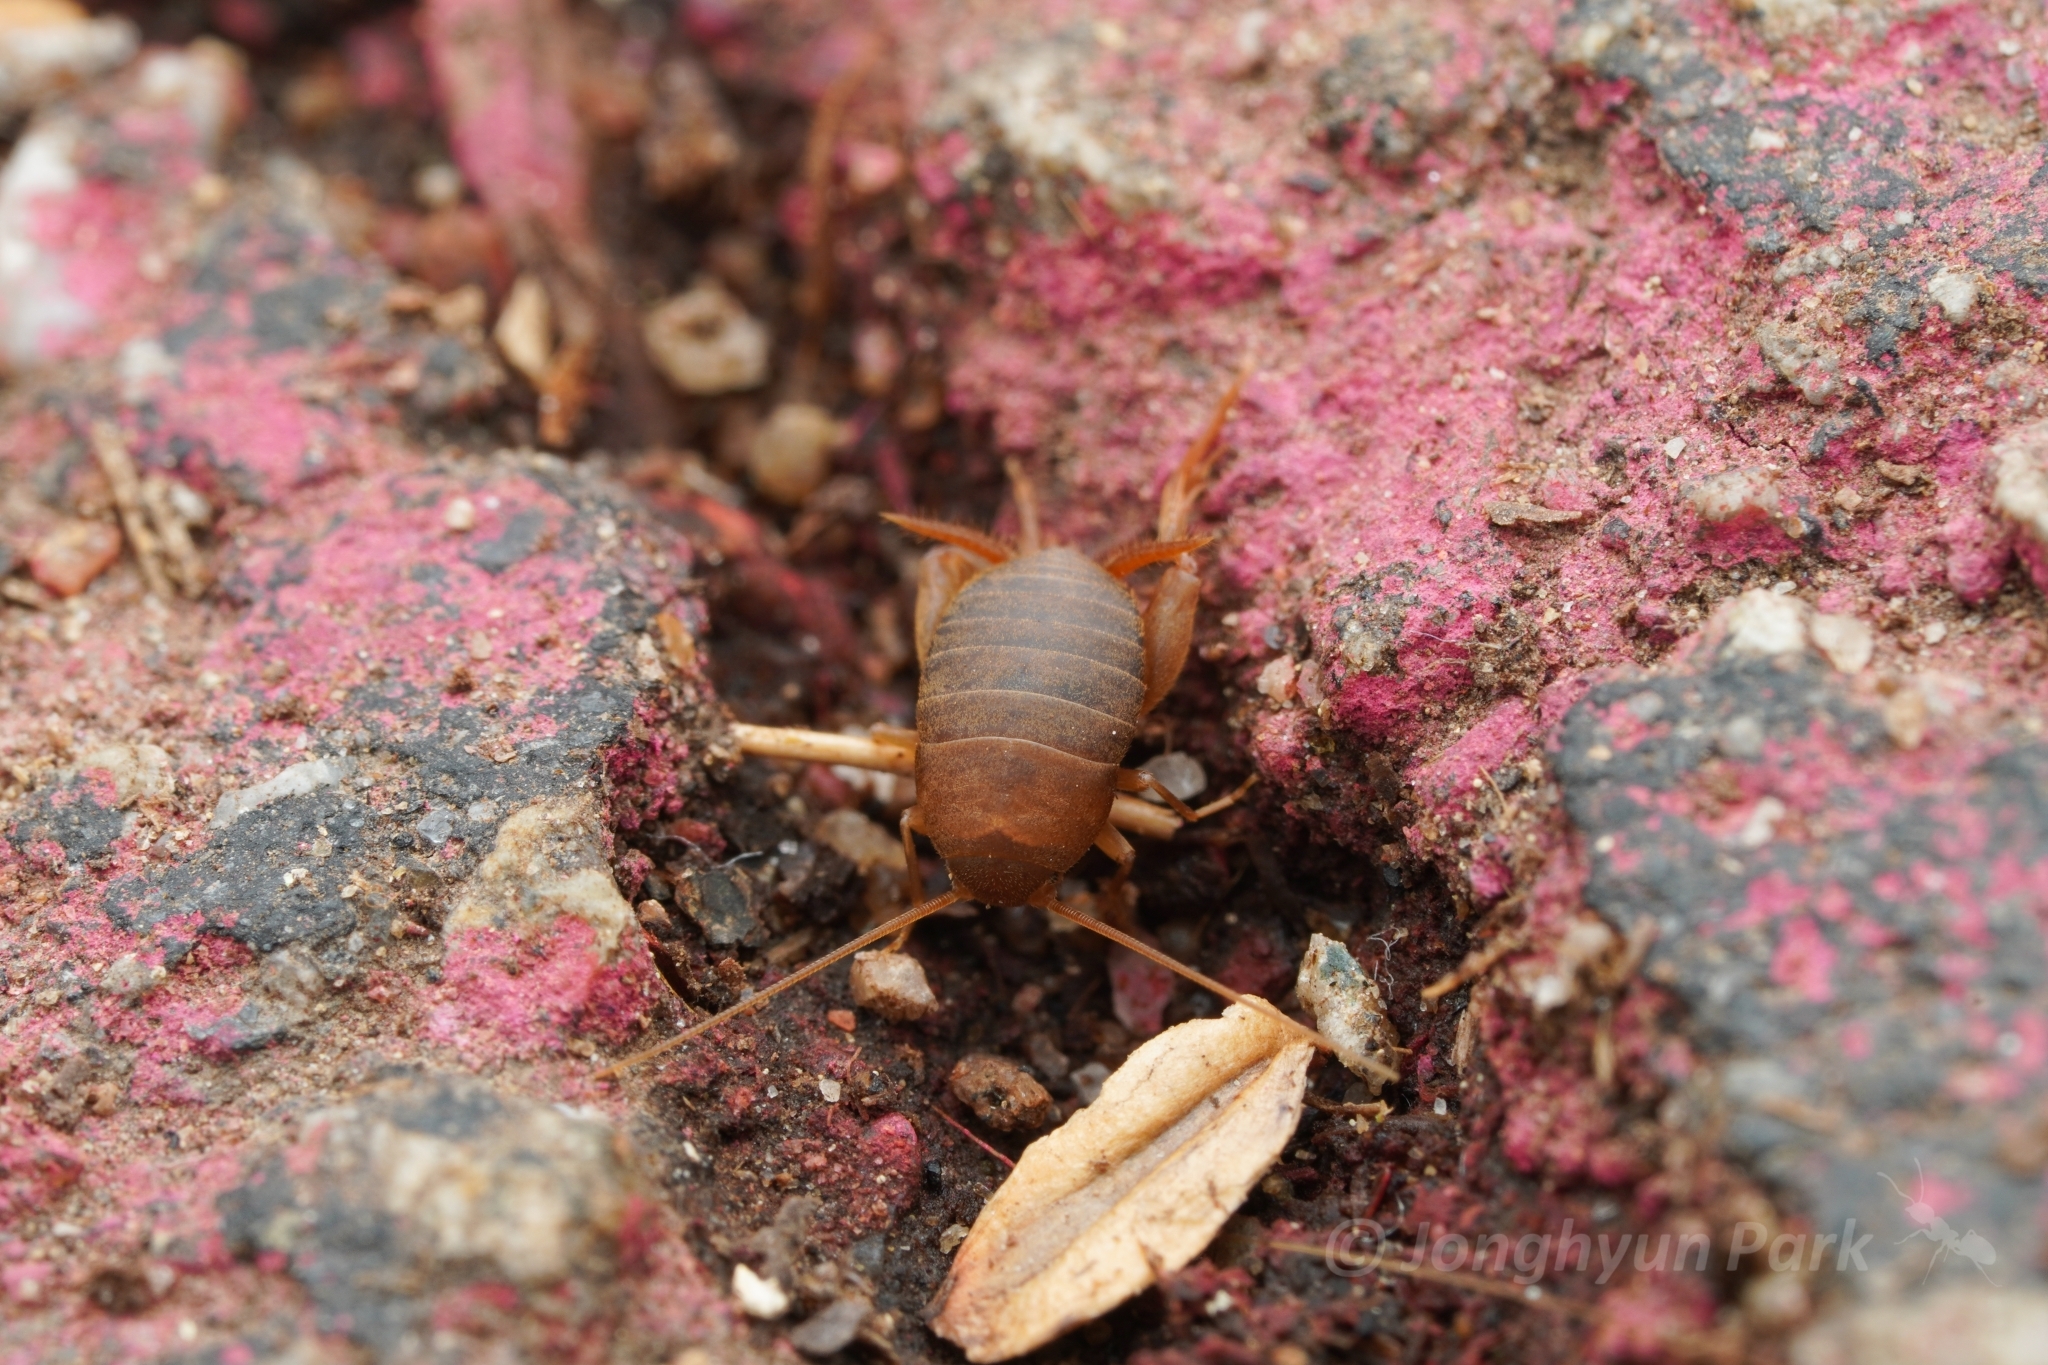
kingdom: Animalia
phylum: Arthropoda
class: Insecta
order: Orthoptera
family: Myrmecophilidae
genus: Myrmecophilus
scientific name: Myrmecophilus oregonensis
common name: Oregon ant cricket
